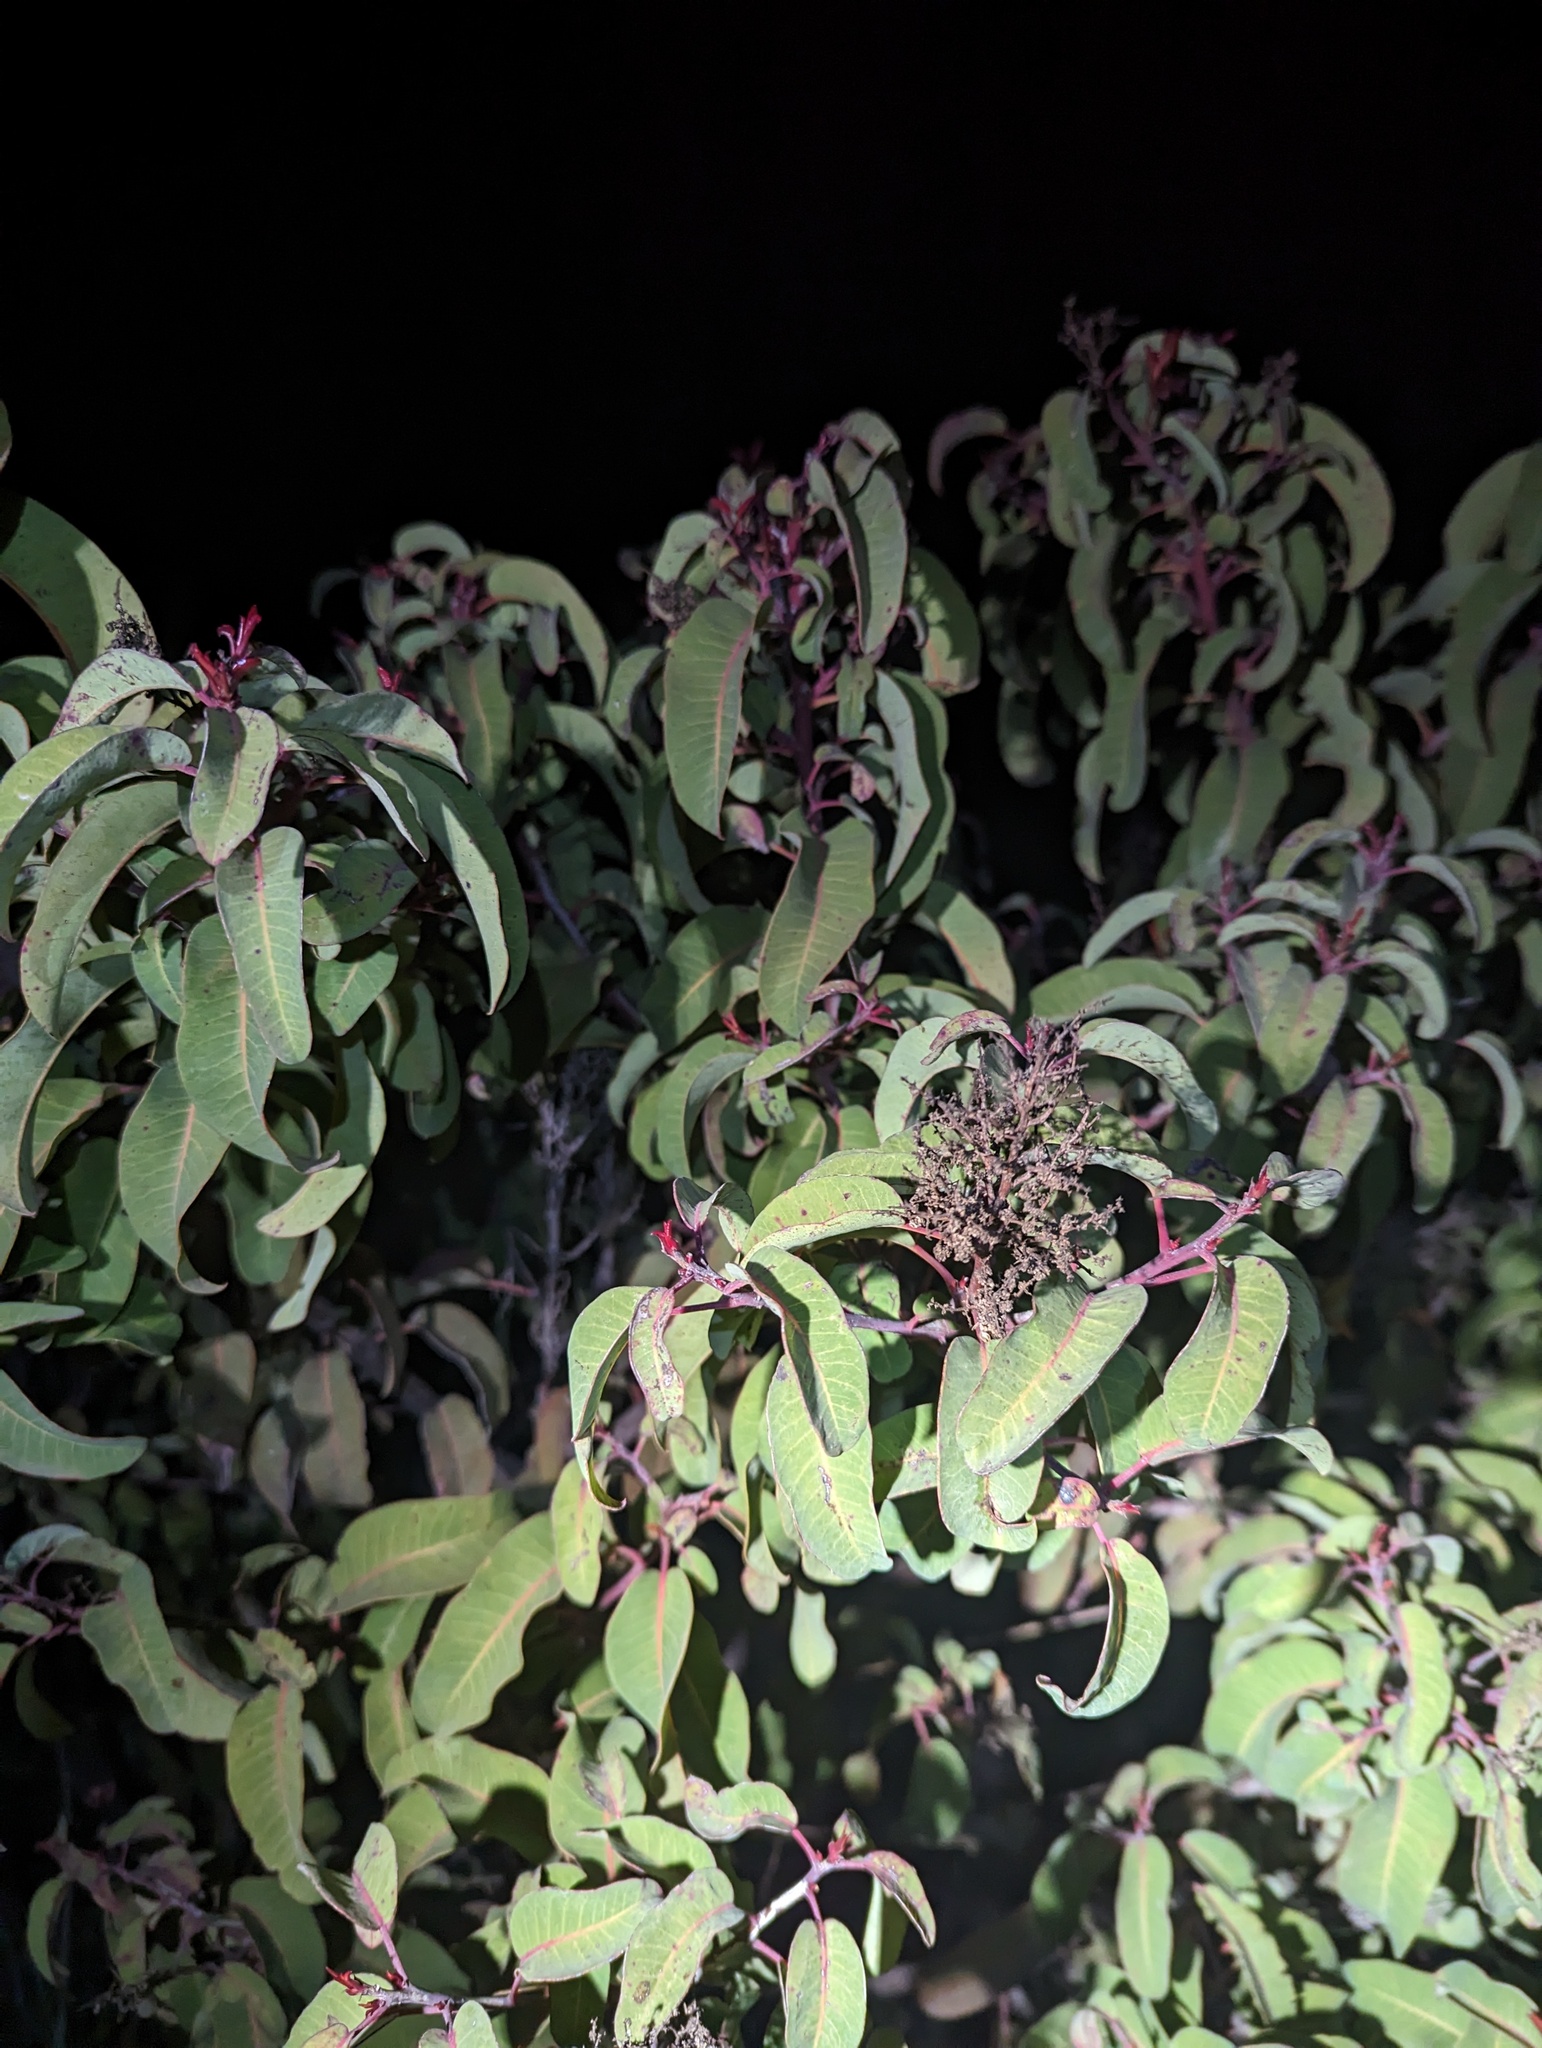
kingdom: Plantae
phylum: Tracheophyta
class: Magnoliopsida
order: Sapindales
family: Anacardiaceae
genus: Malosma
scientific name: Malosma laurina
